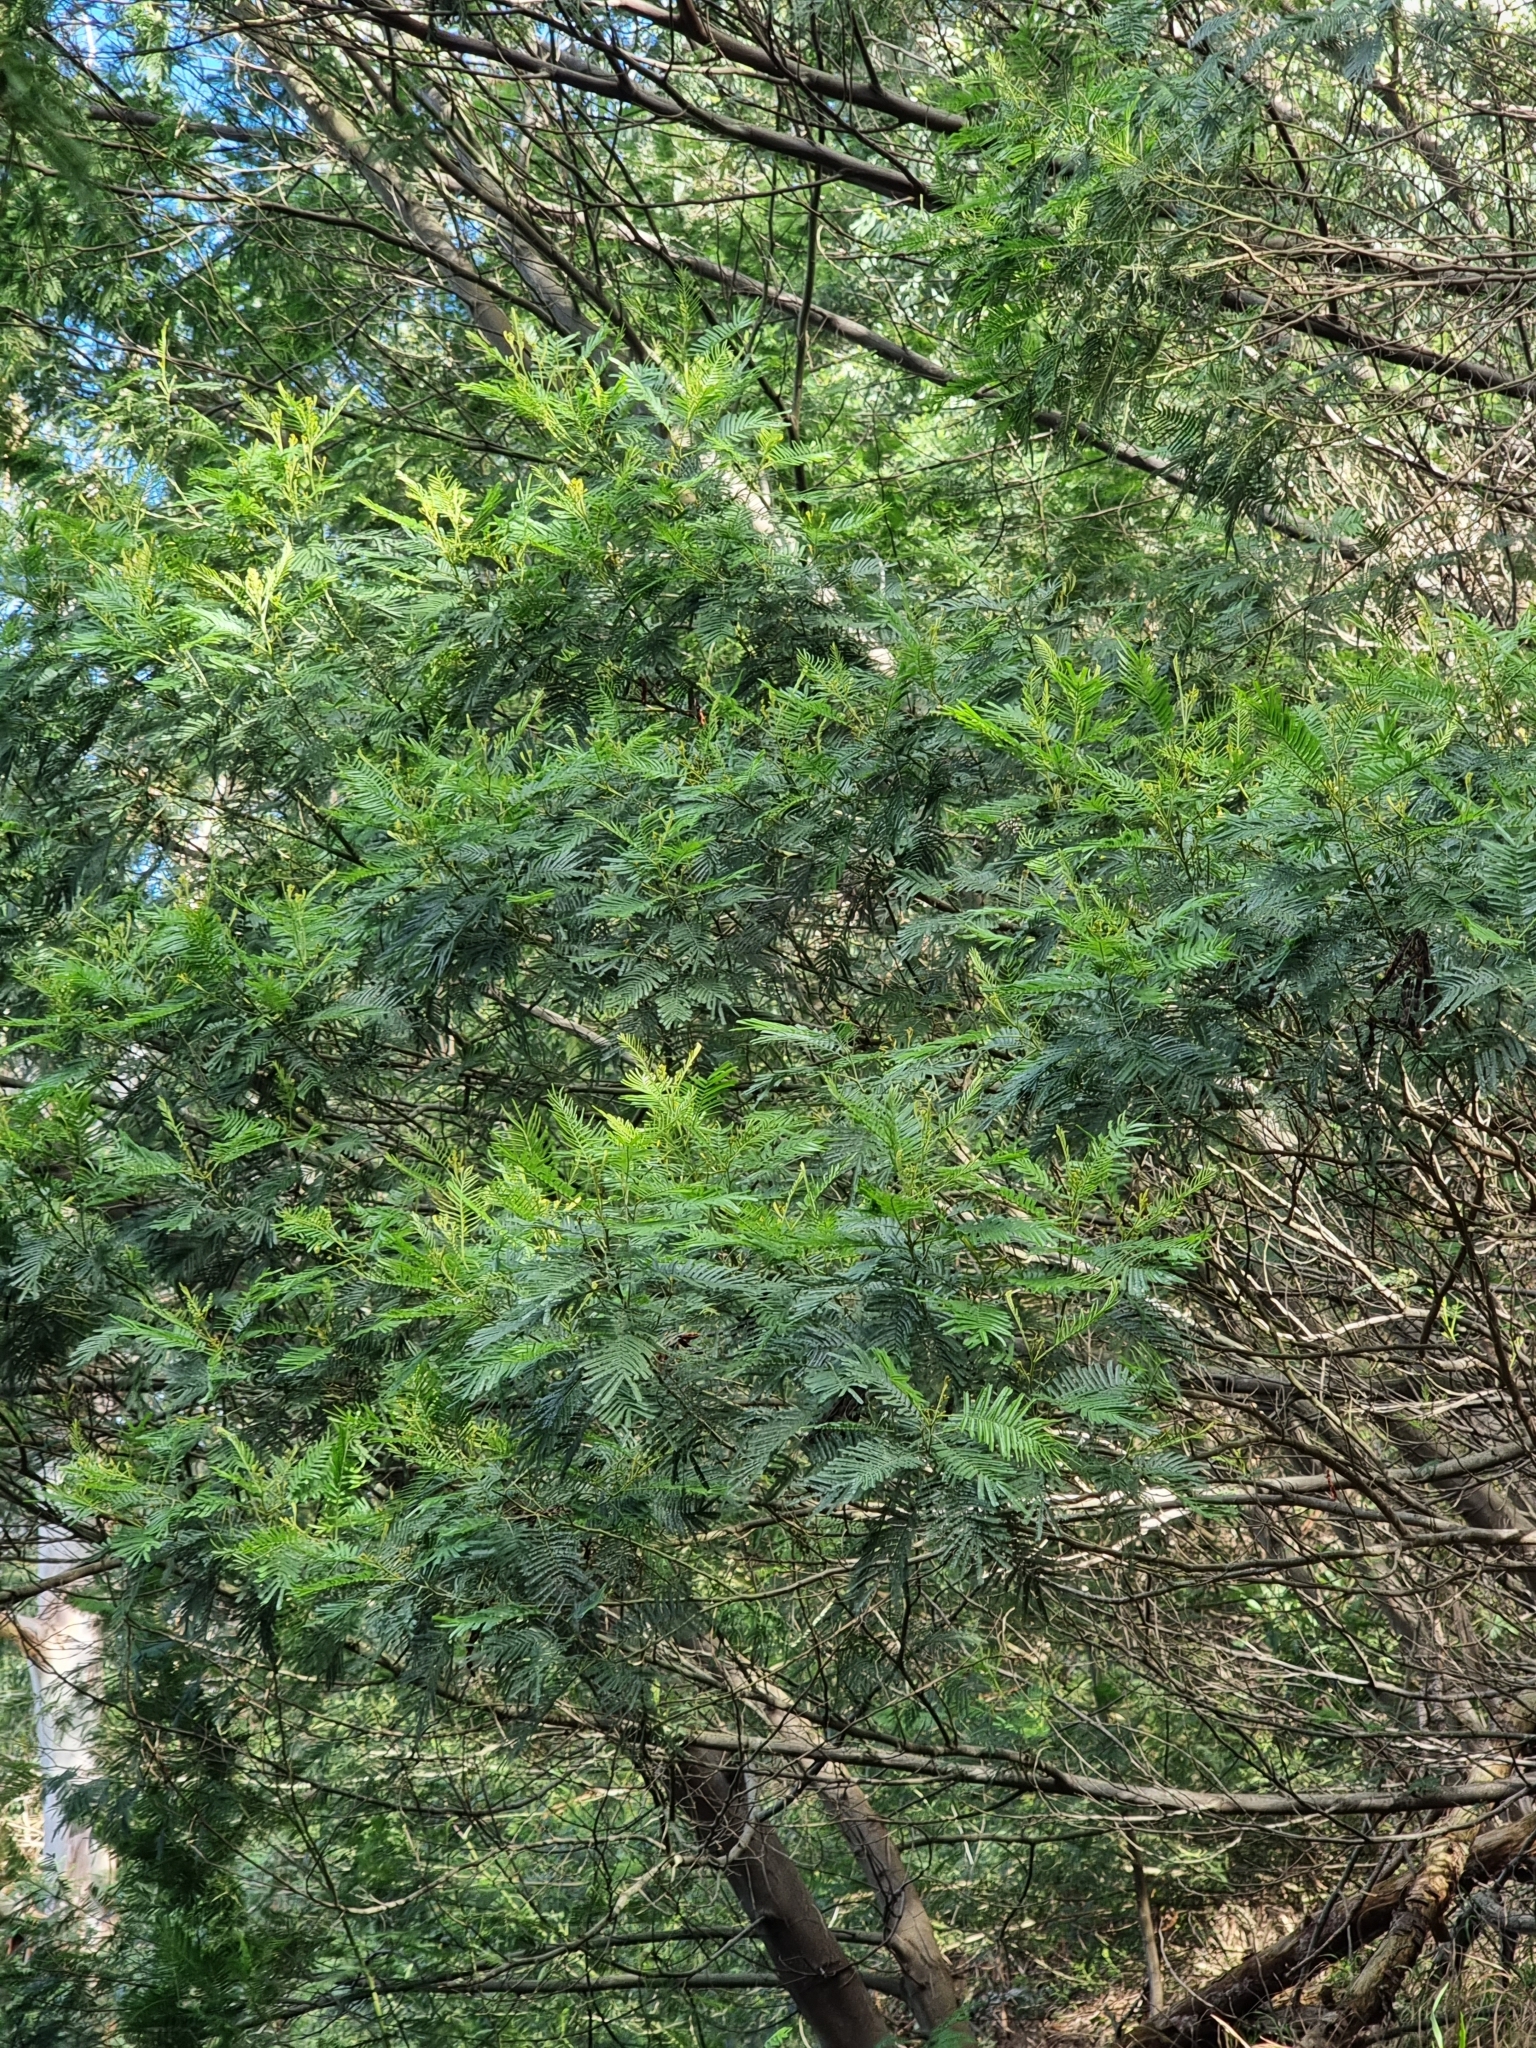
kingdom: Plantae
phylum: Tracheophyta
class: Magnoliopsida
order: Fabales
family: Fabaceae
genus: Acacia
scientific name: Acacia mearnsii
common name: Black wattle
